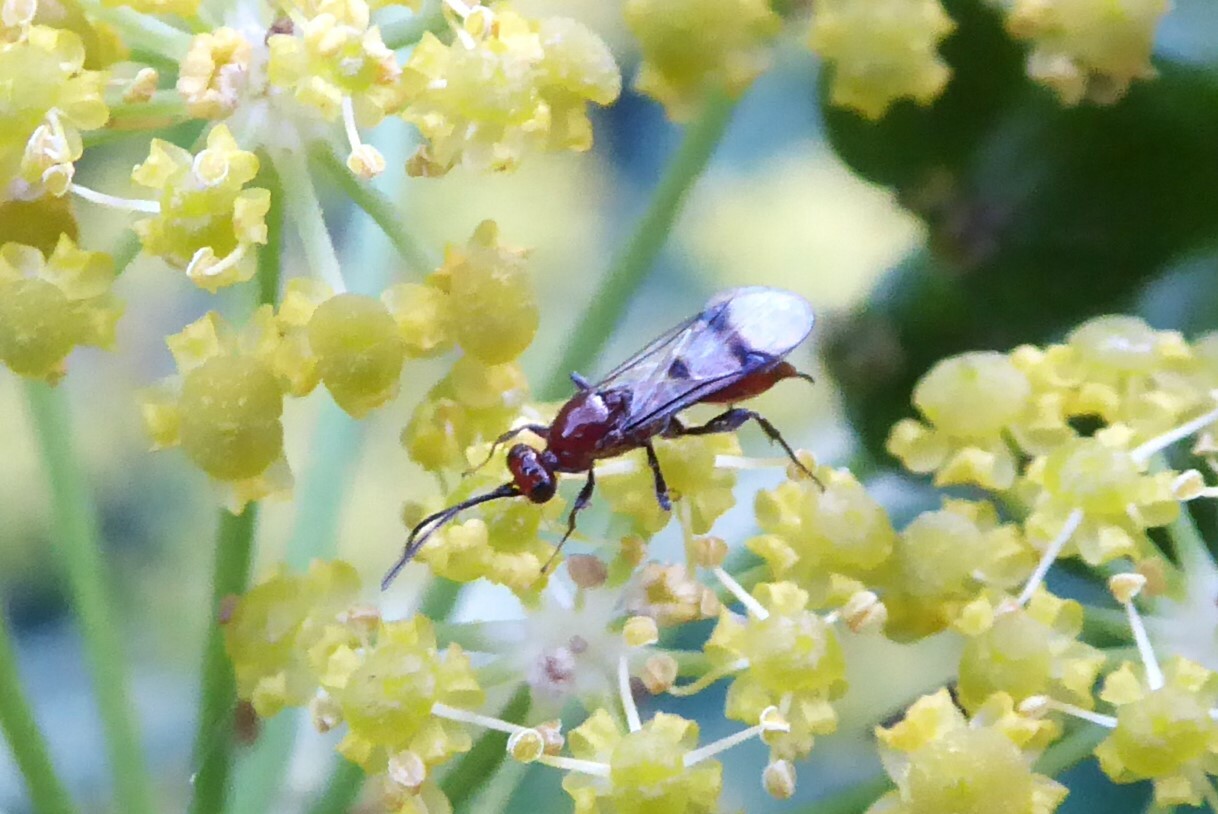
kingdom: Animalia
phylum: Arthropoda
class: Insecta
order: Hymenoptera
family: Proctotrupidae
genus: Fustiserphus
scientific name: Fustiserphus
